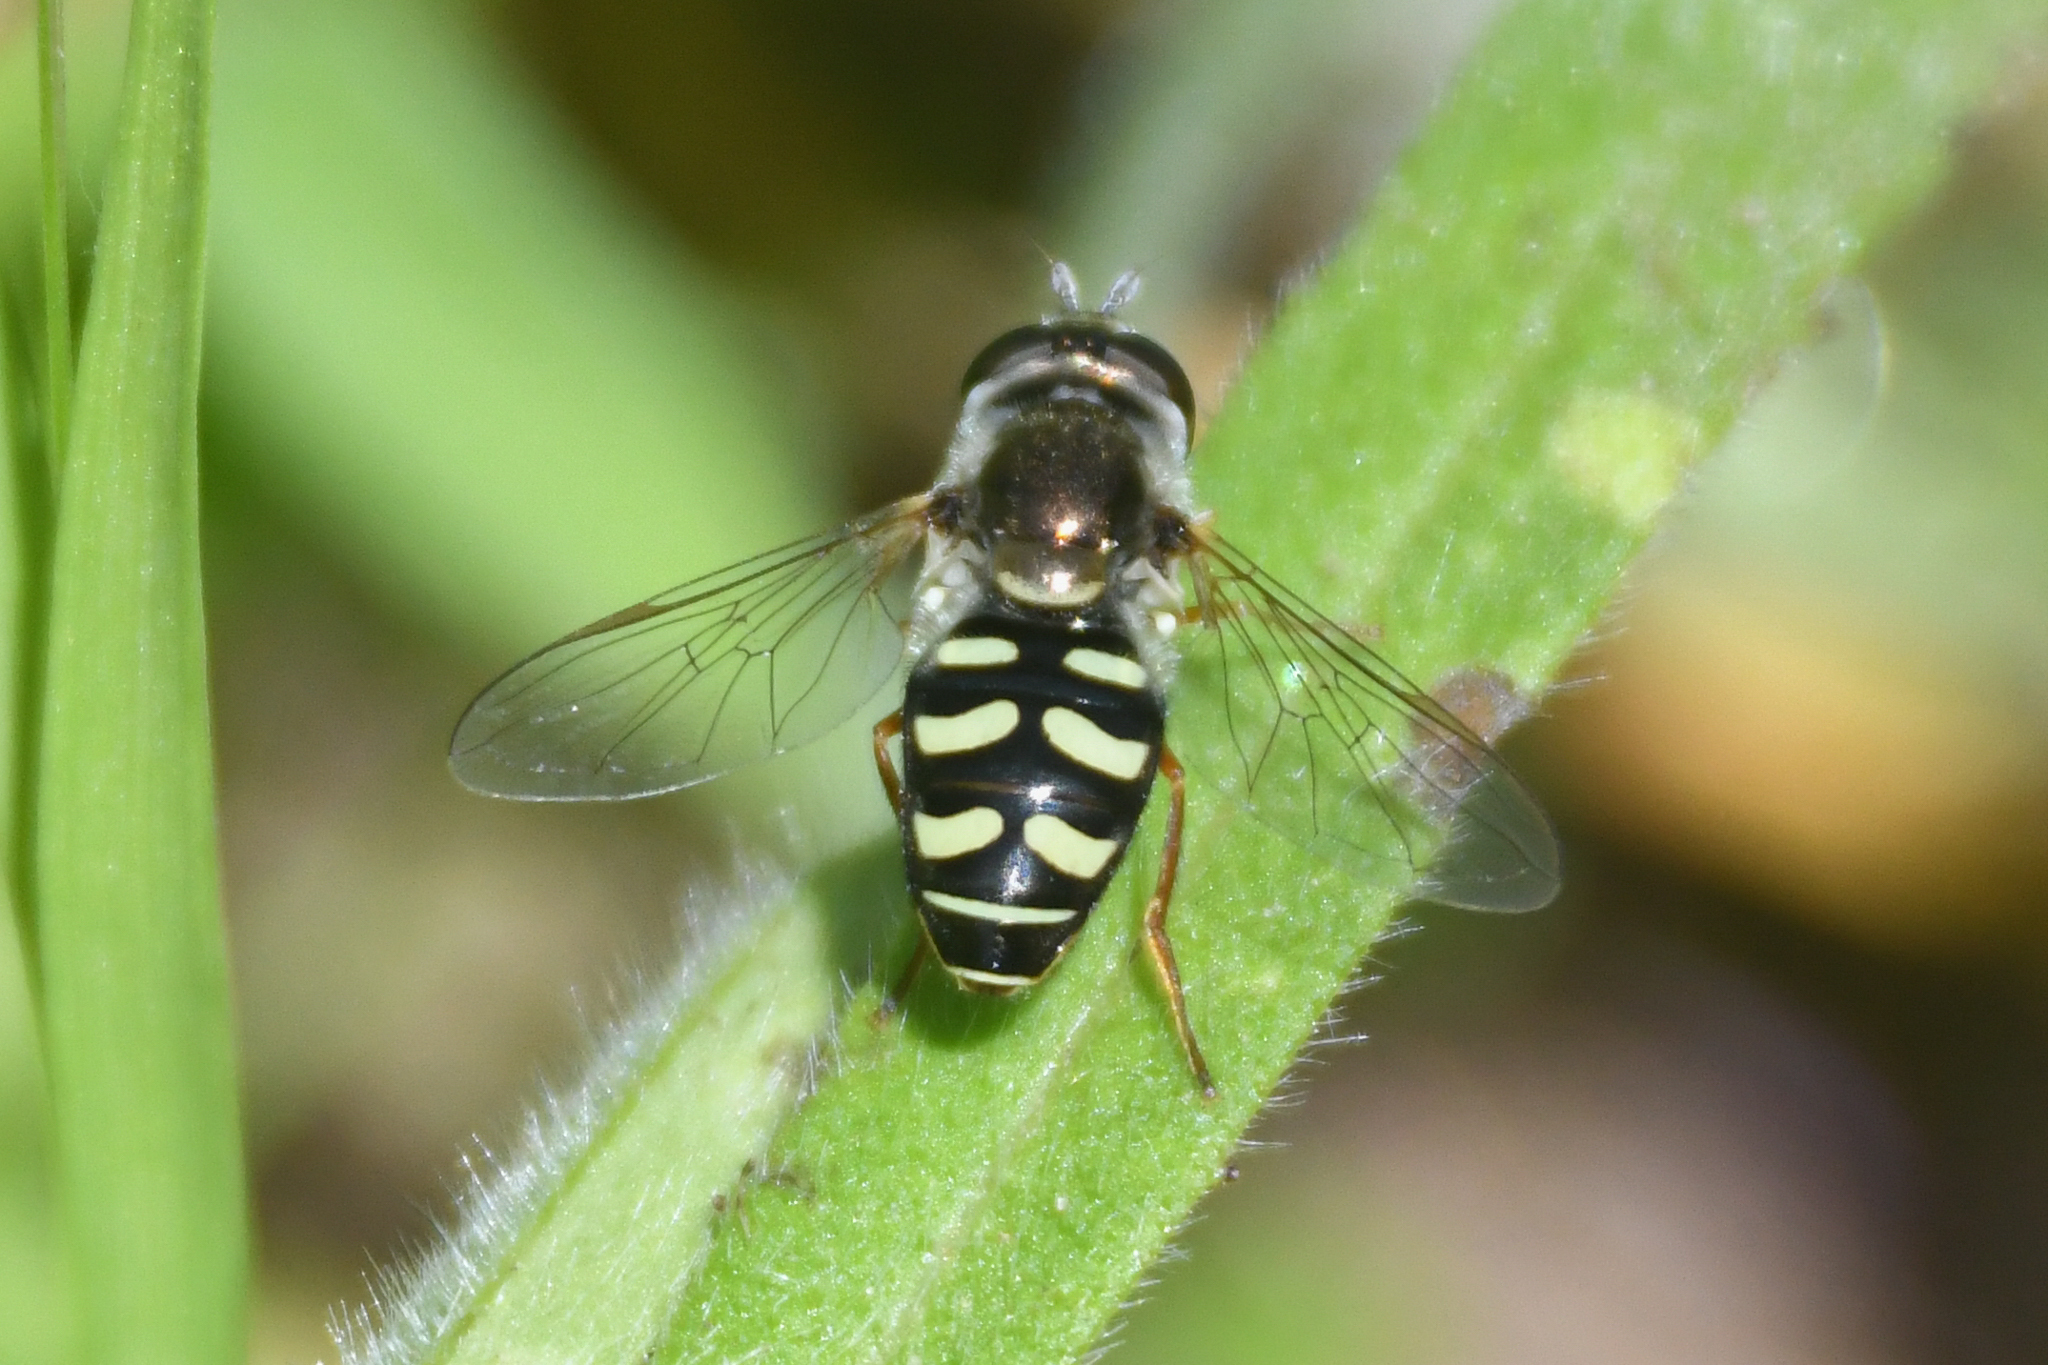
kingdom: Animalia
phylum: Arthropoda
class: Insecta
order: Diptera
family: Syrphidae
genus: Eupeodes
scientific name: Eupeodes volucris
